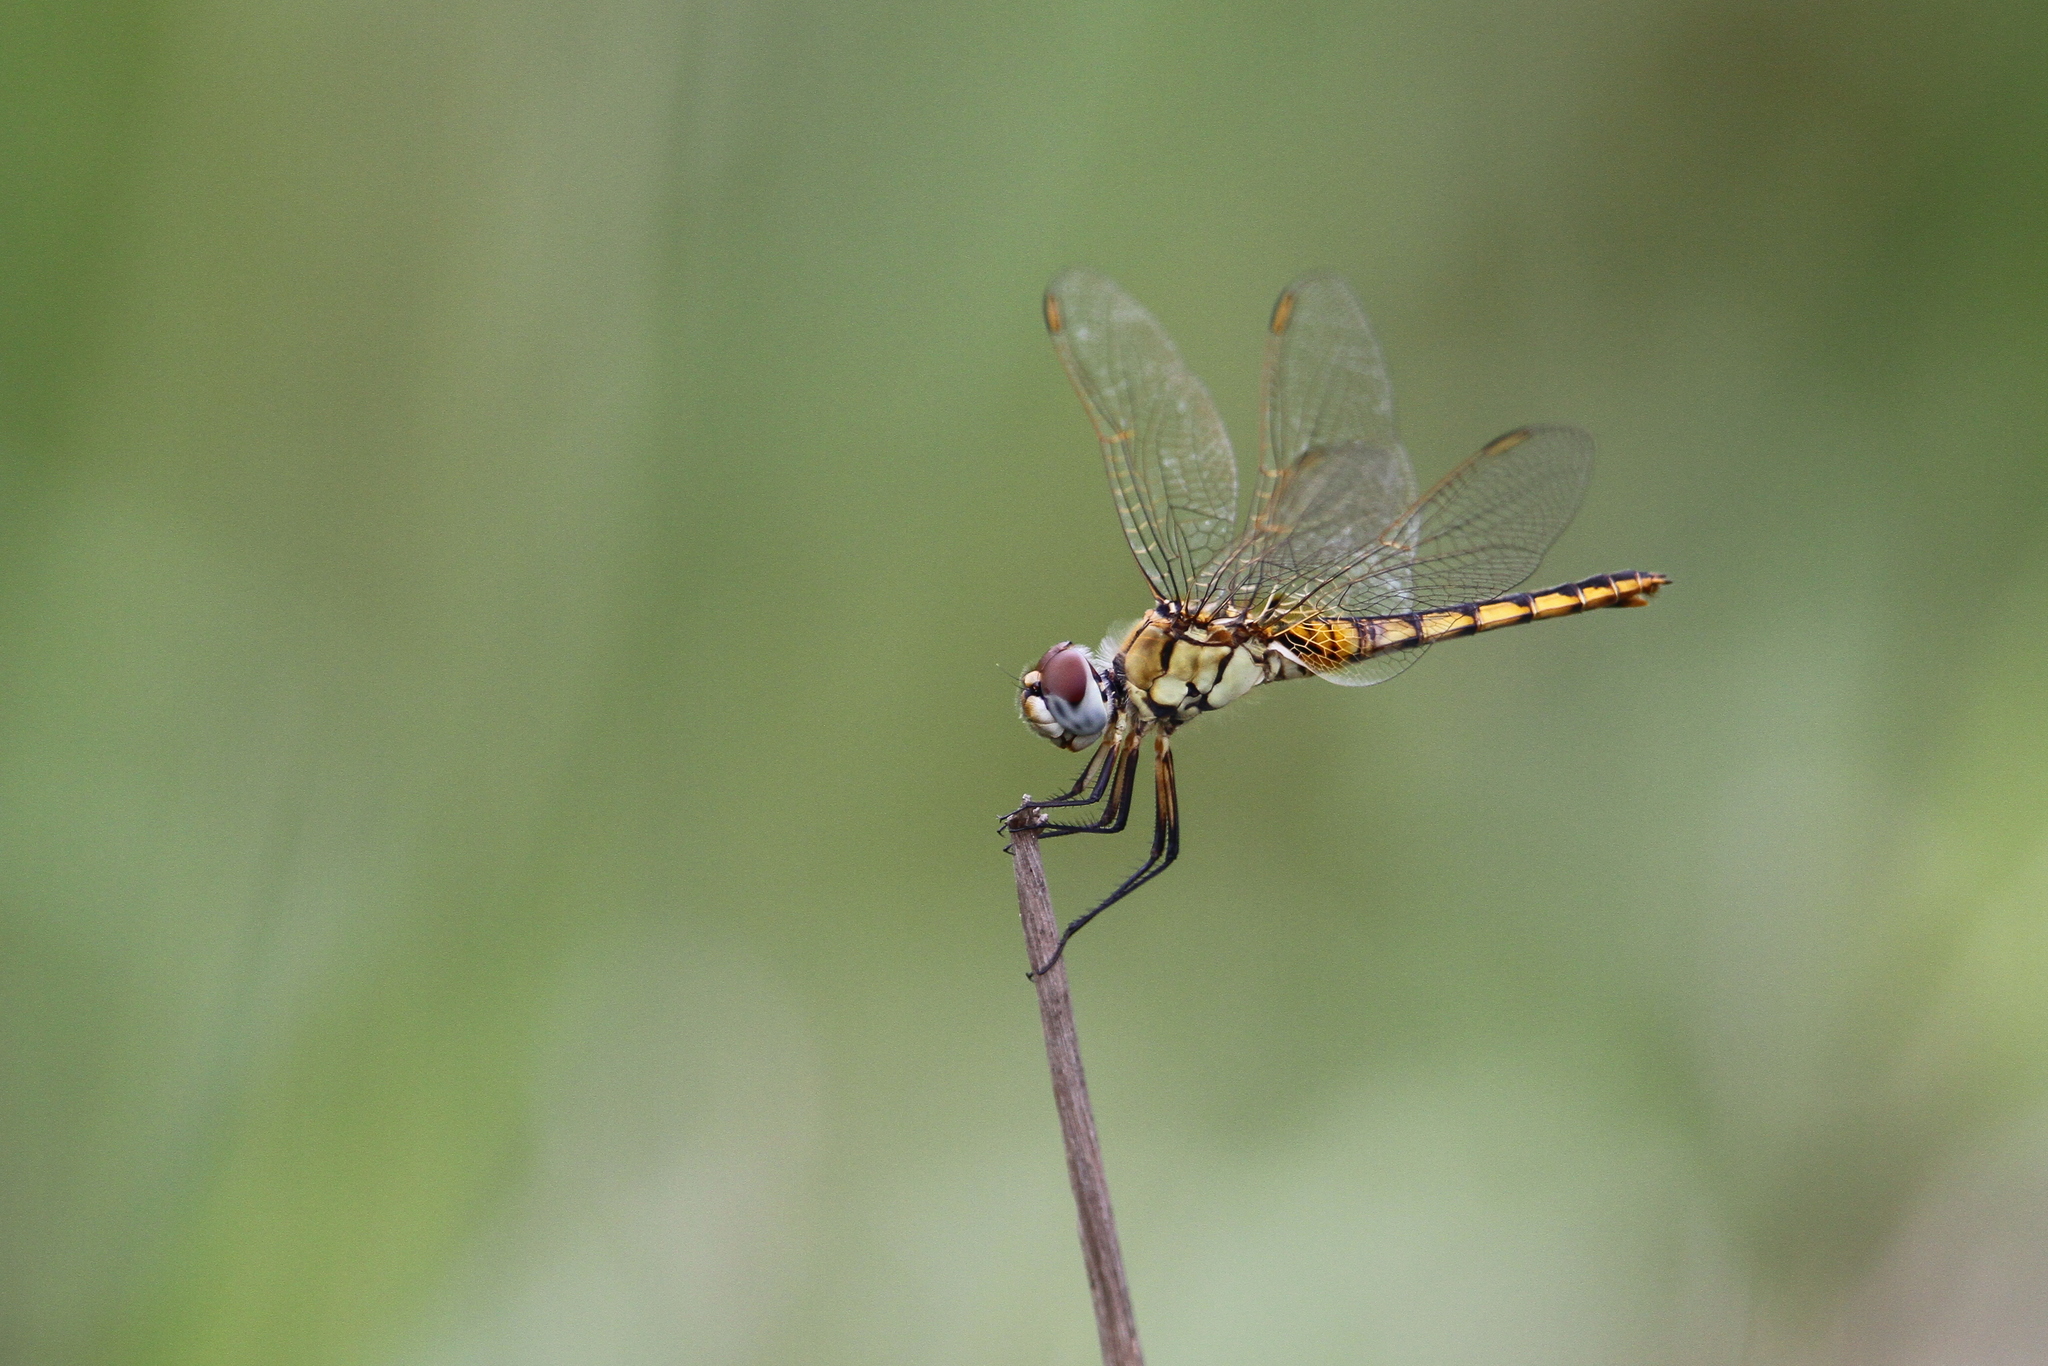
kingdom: Animalia
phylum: Arthropoda
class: Insecta
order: Odonata
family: Libellulidae
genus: Urothemis
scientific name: Urothemis edwardsii
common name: Blue basker
